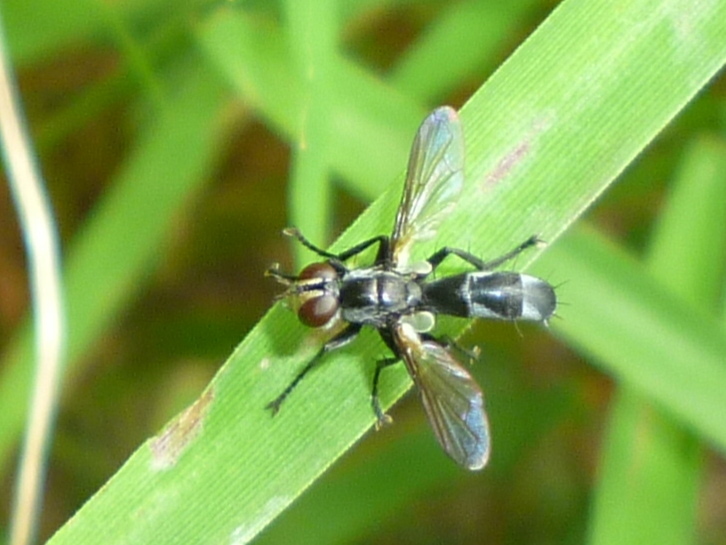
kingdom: Animalia
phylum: Arthropoda
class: Insecta
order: Diptera
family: Tachinidae
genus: Cylindromyia
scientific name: Cylindromyia propusilla
